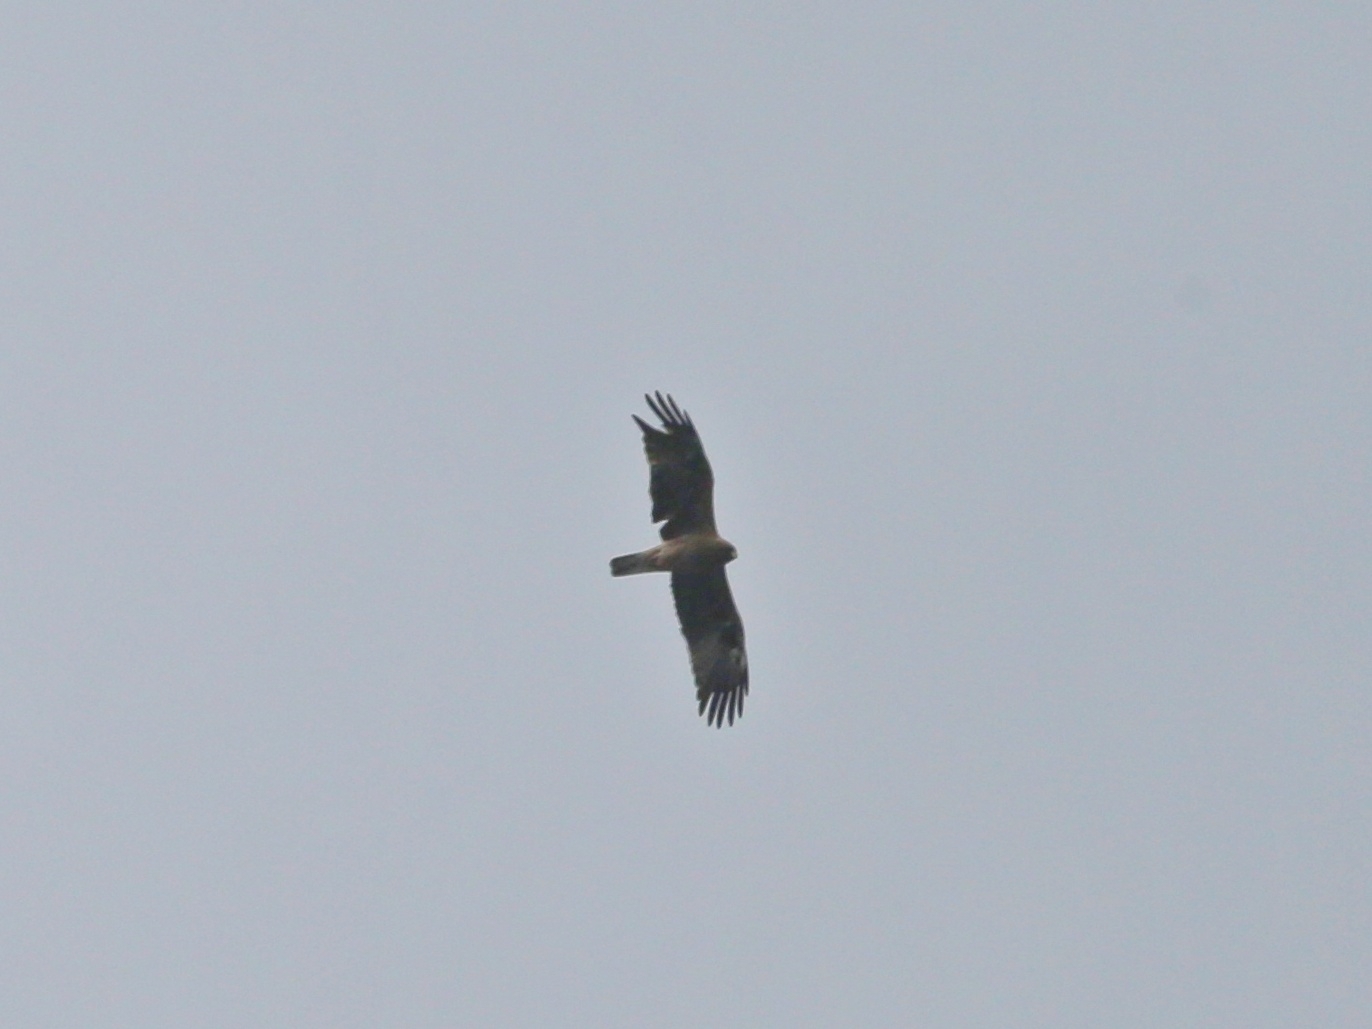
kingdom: Animalia
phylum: Chordata
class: Aves
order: Accipitriformes
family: Accipitridae
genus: Hieraaetus
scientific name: Hieraaetus pennatus
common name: Booted eagle
